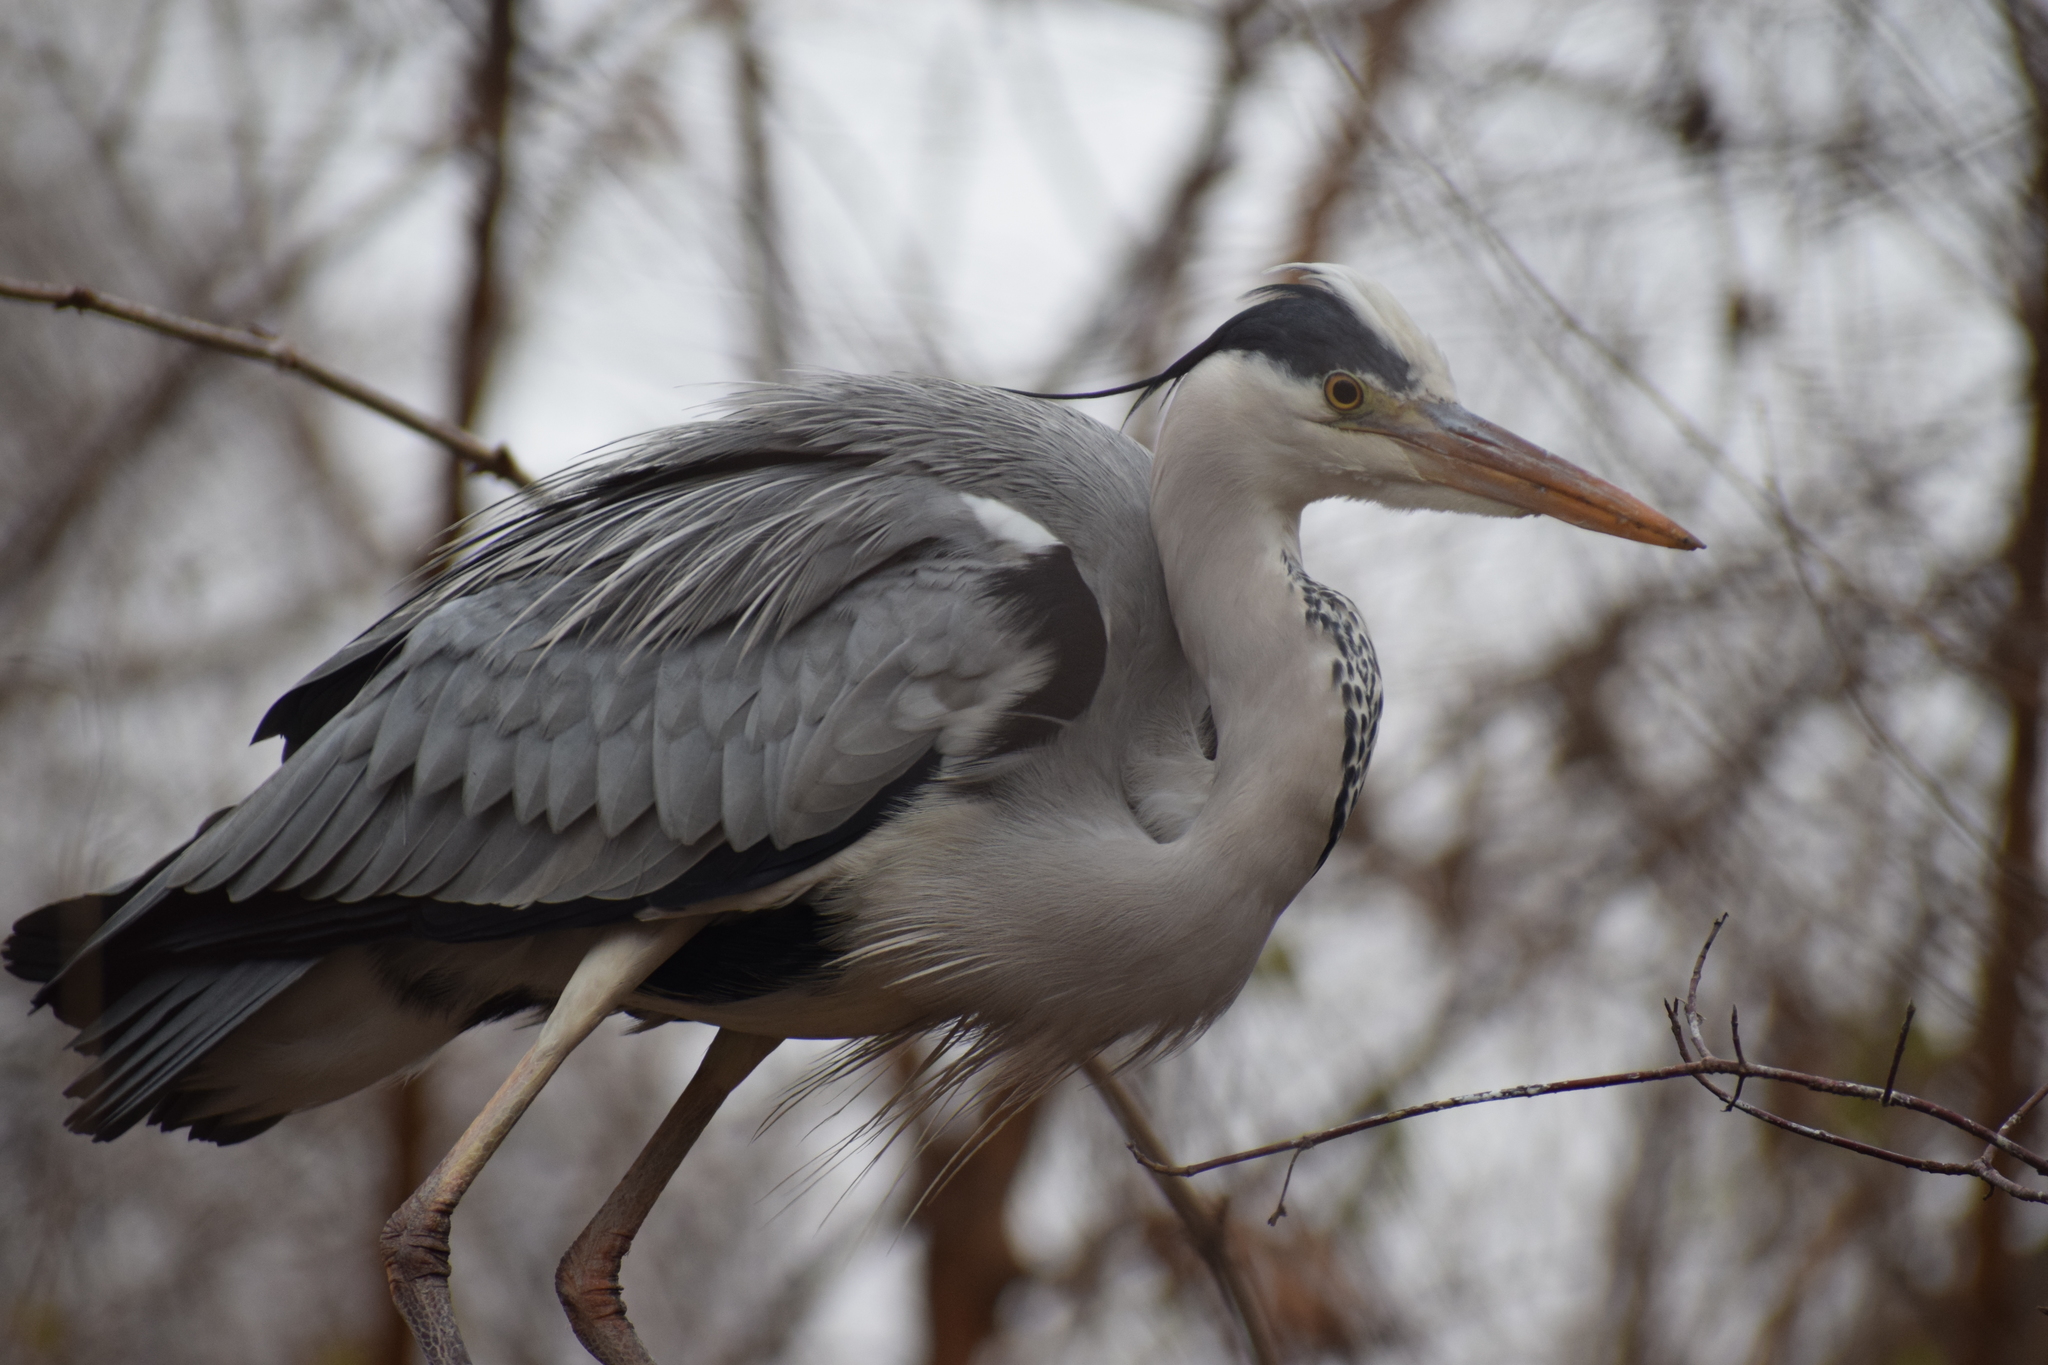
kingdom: Animalia
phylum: Chordata
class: Aves
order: Pelecaniformes
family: Ardeidae
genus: Ardea
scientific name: Ardea cinerea
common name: Grey heron
